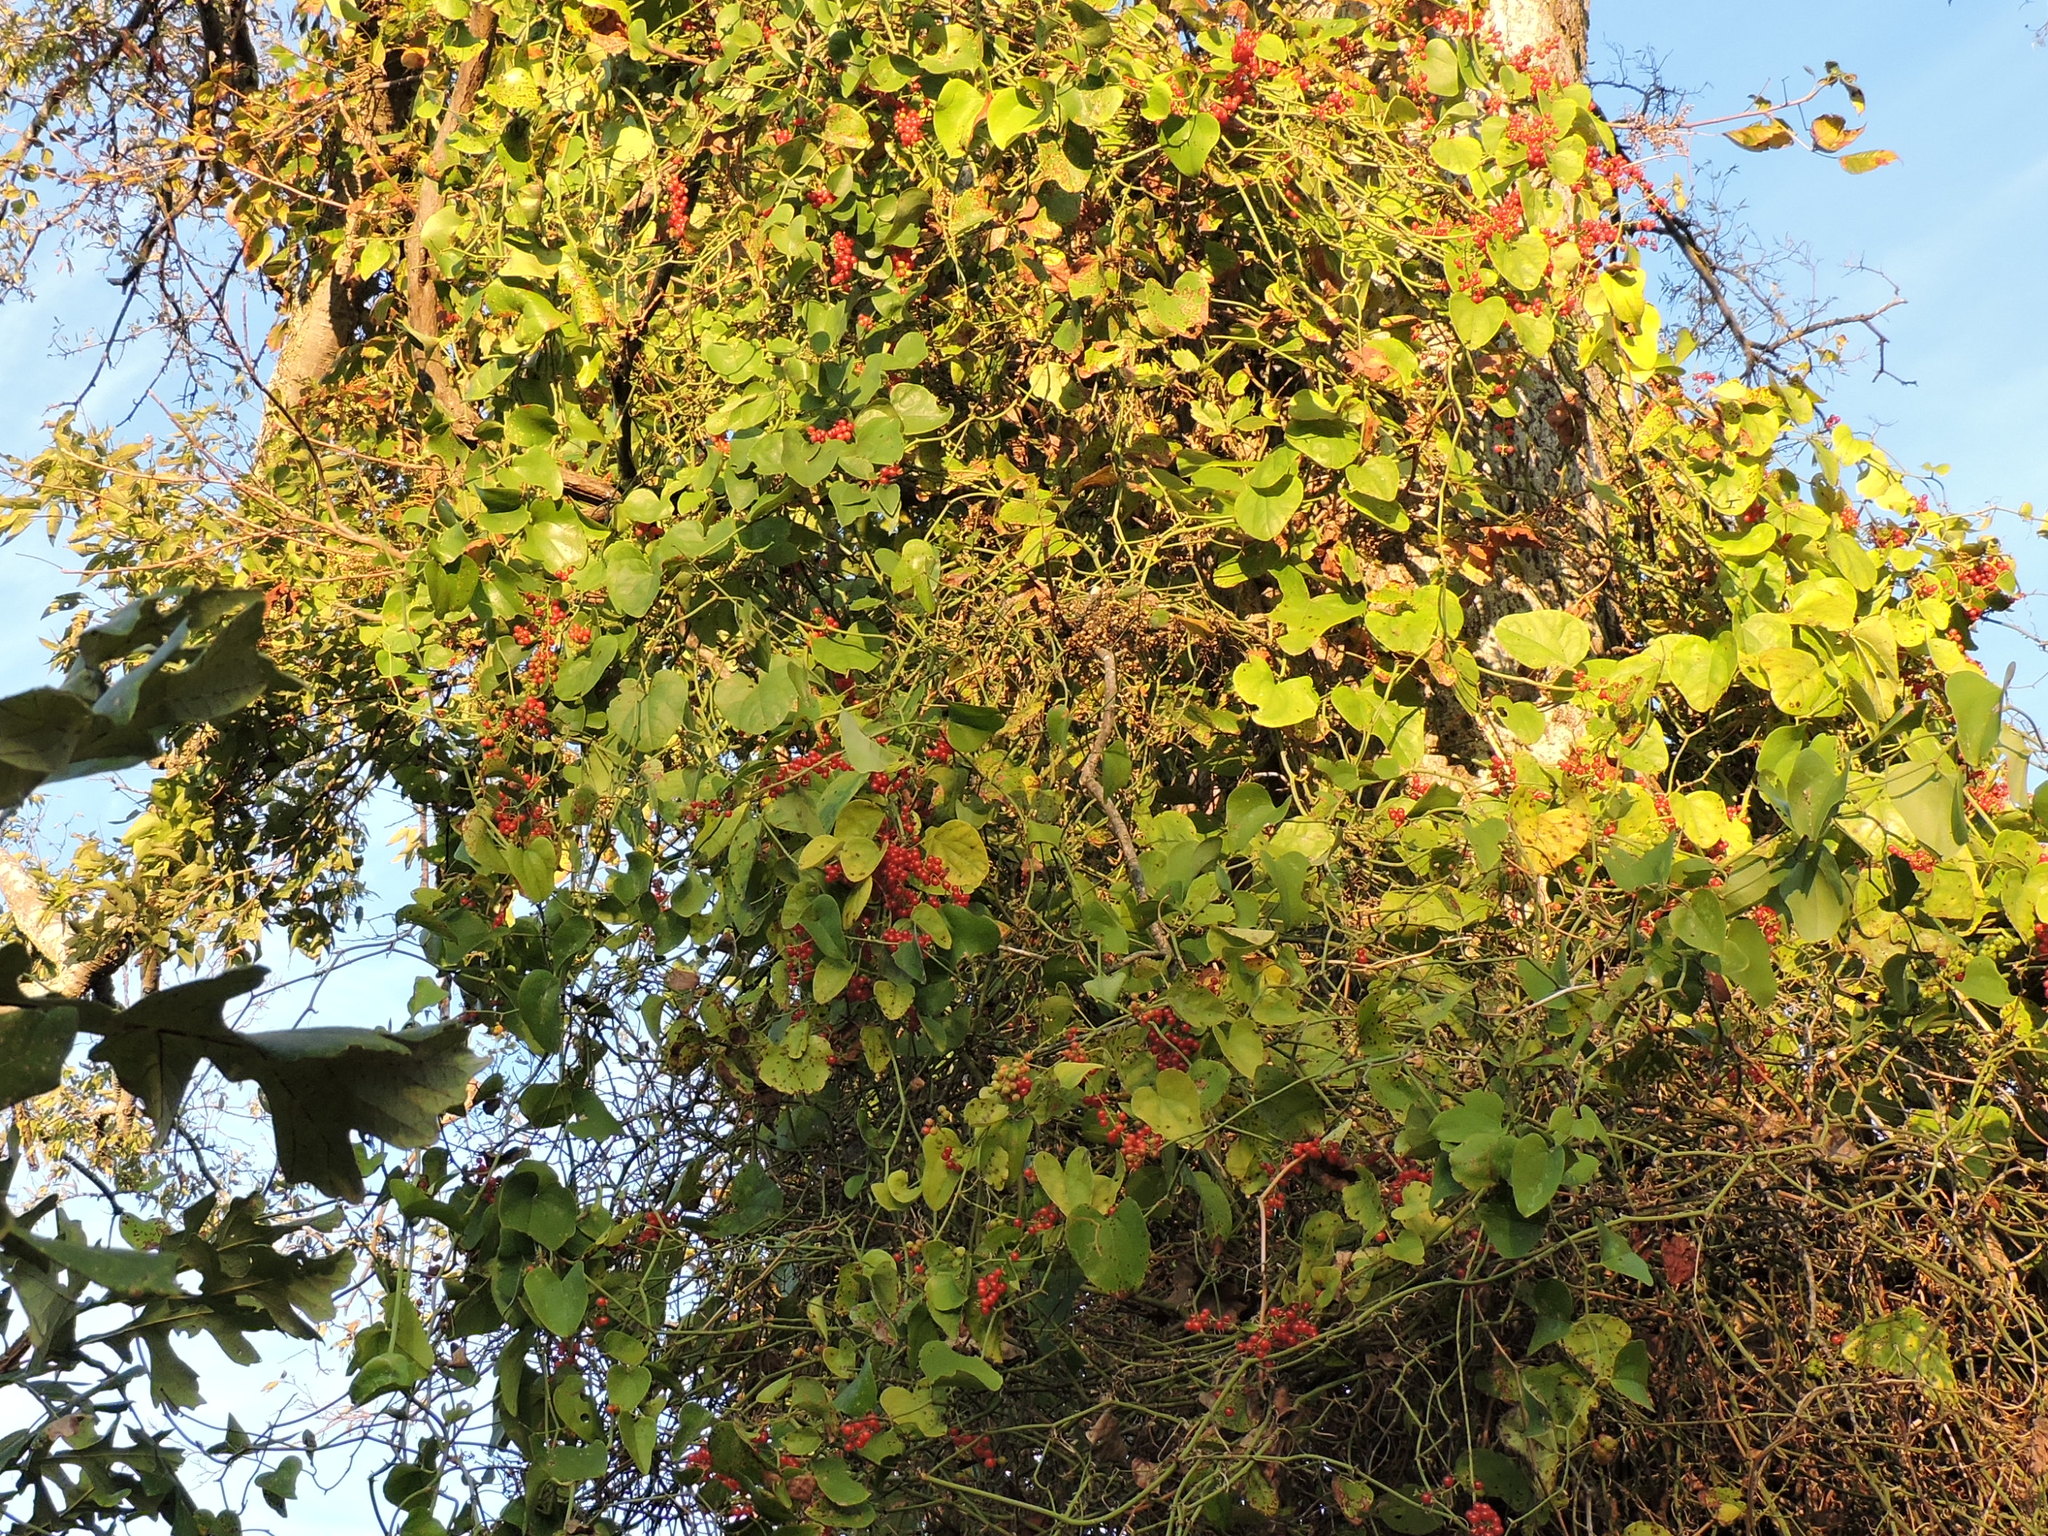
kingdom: Plantae
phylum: Tracheophyta
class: Magnoliopsida
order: Ranunculales
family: Menispermaceae
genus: Cocculus
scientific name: Cocculus carolinus
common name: Carolina moonseed
